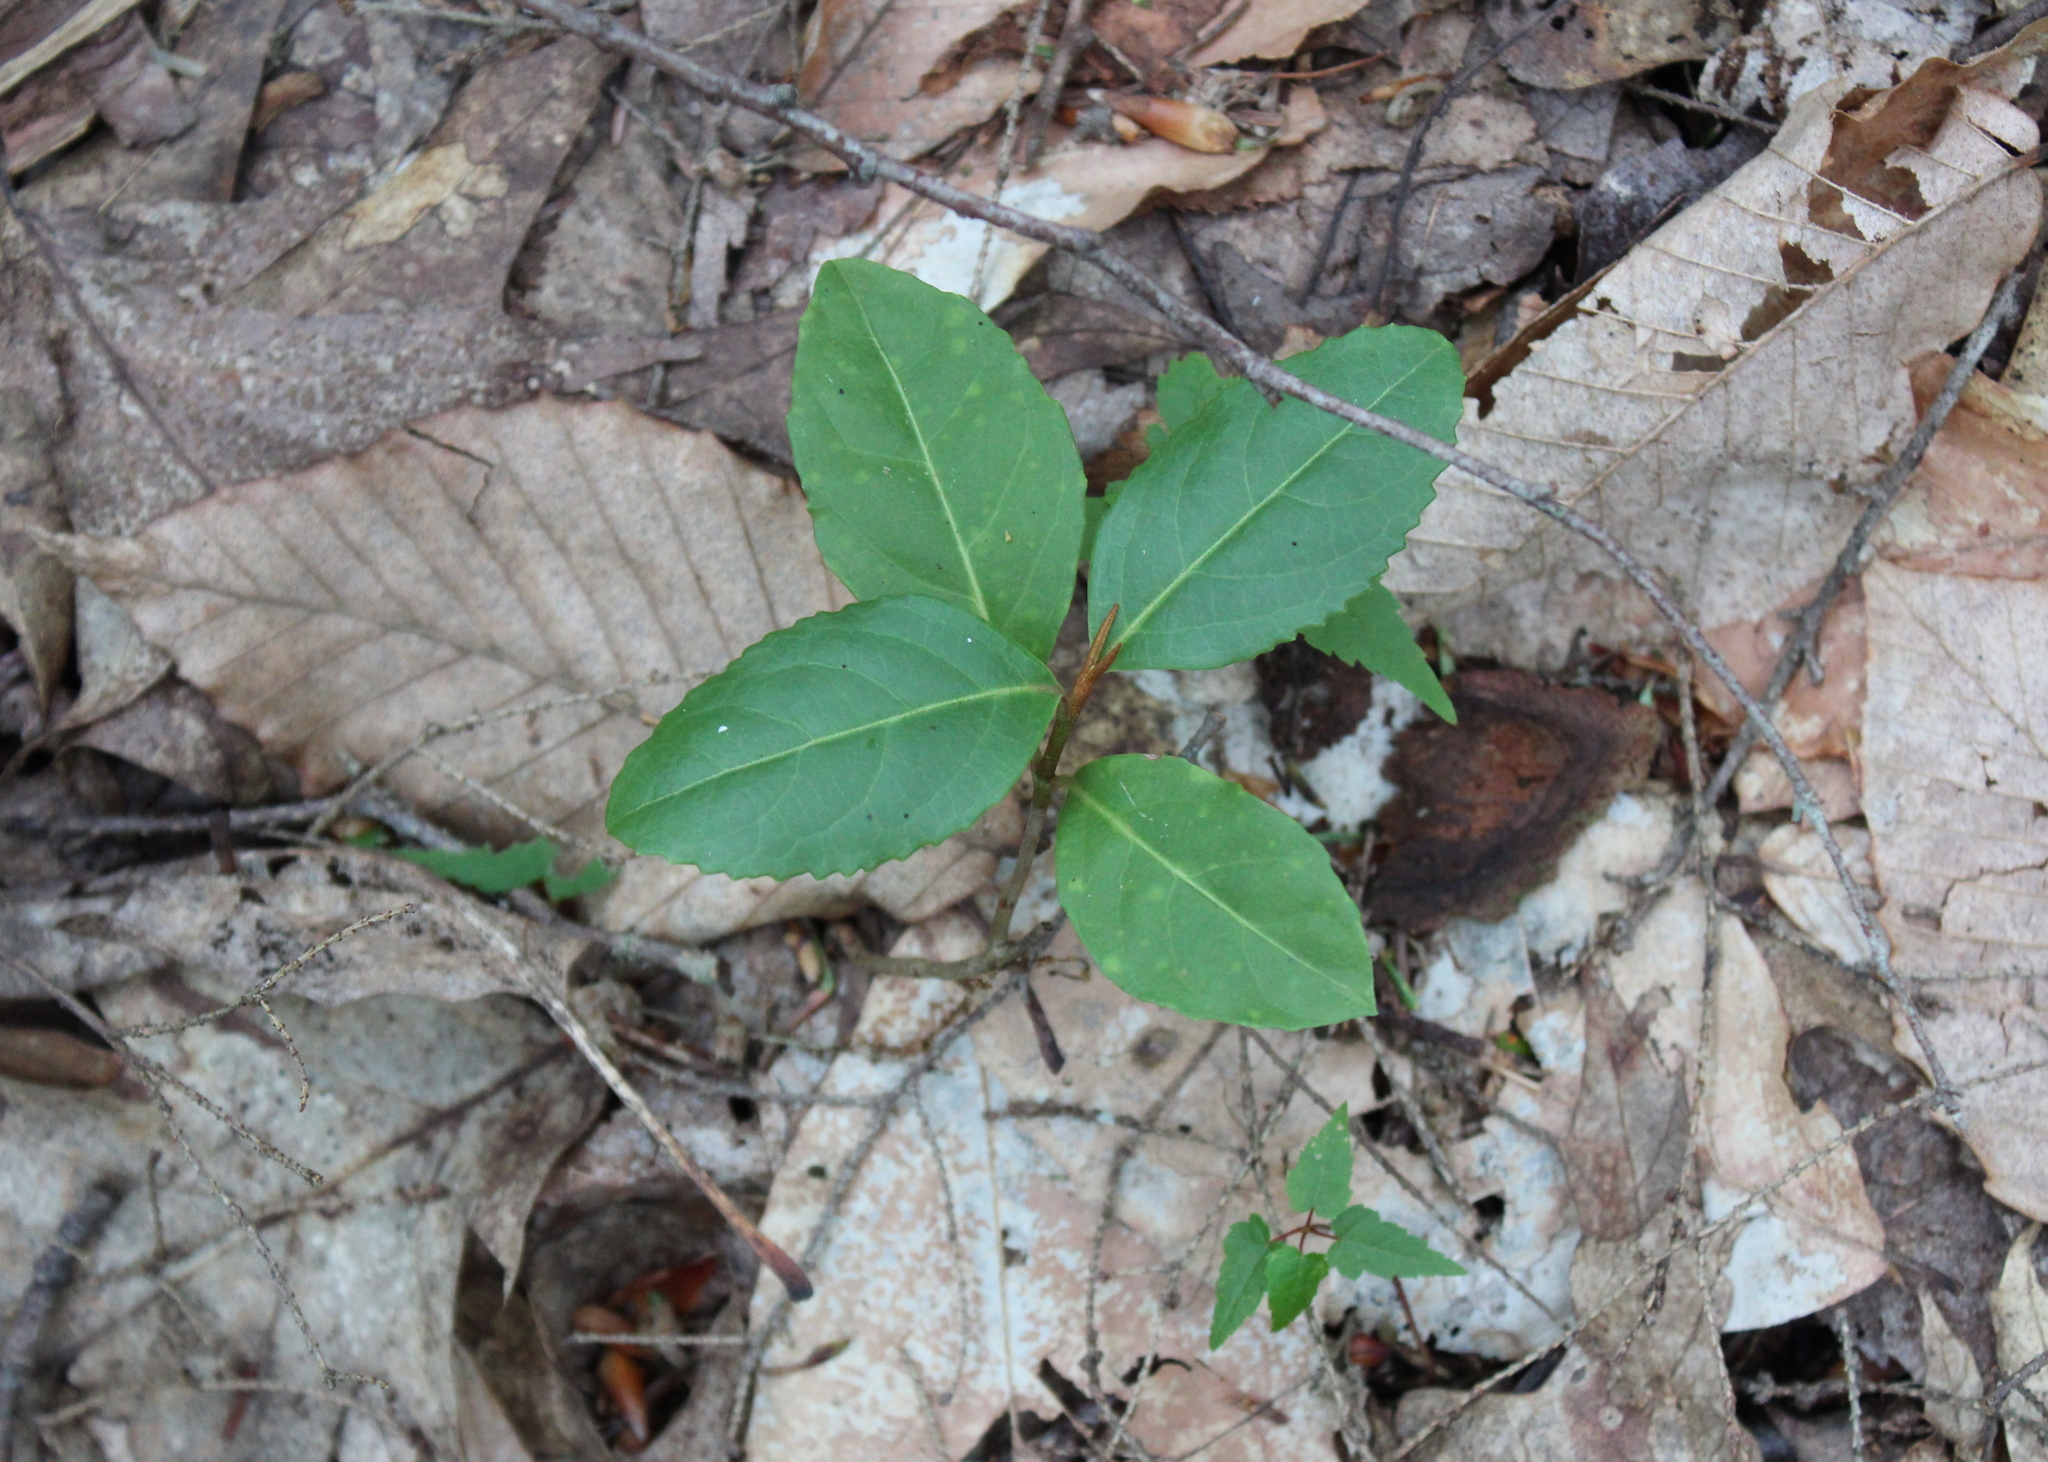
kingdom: Plantae
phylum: Tracheophyta
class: Magnoliopsida
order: Dipsacales
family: Viburnaceae
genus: Viburnum
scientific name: Viburnum cassinoides
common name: Swamp haw
